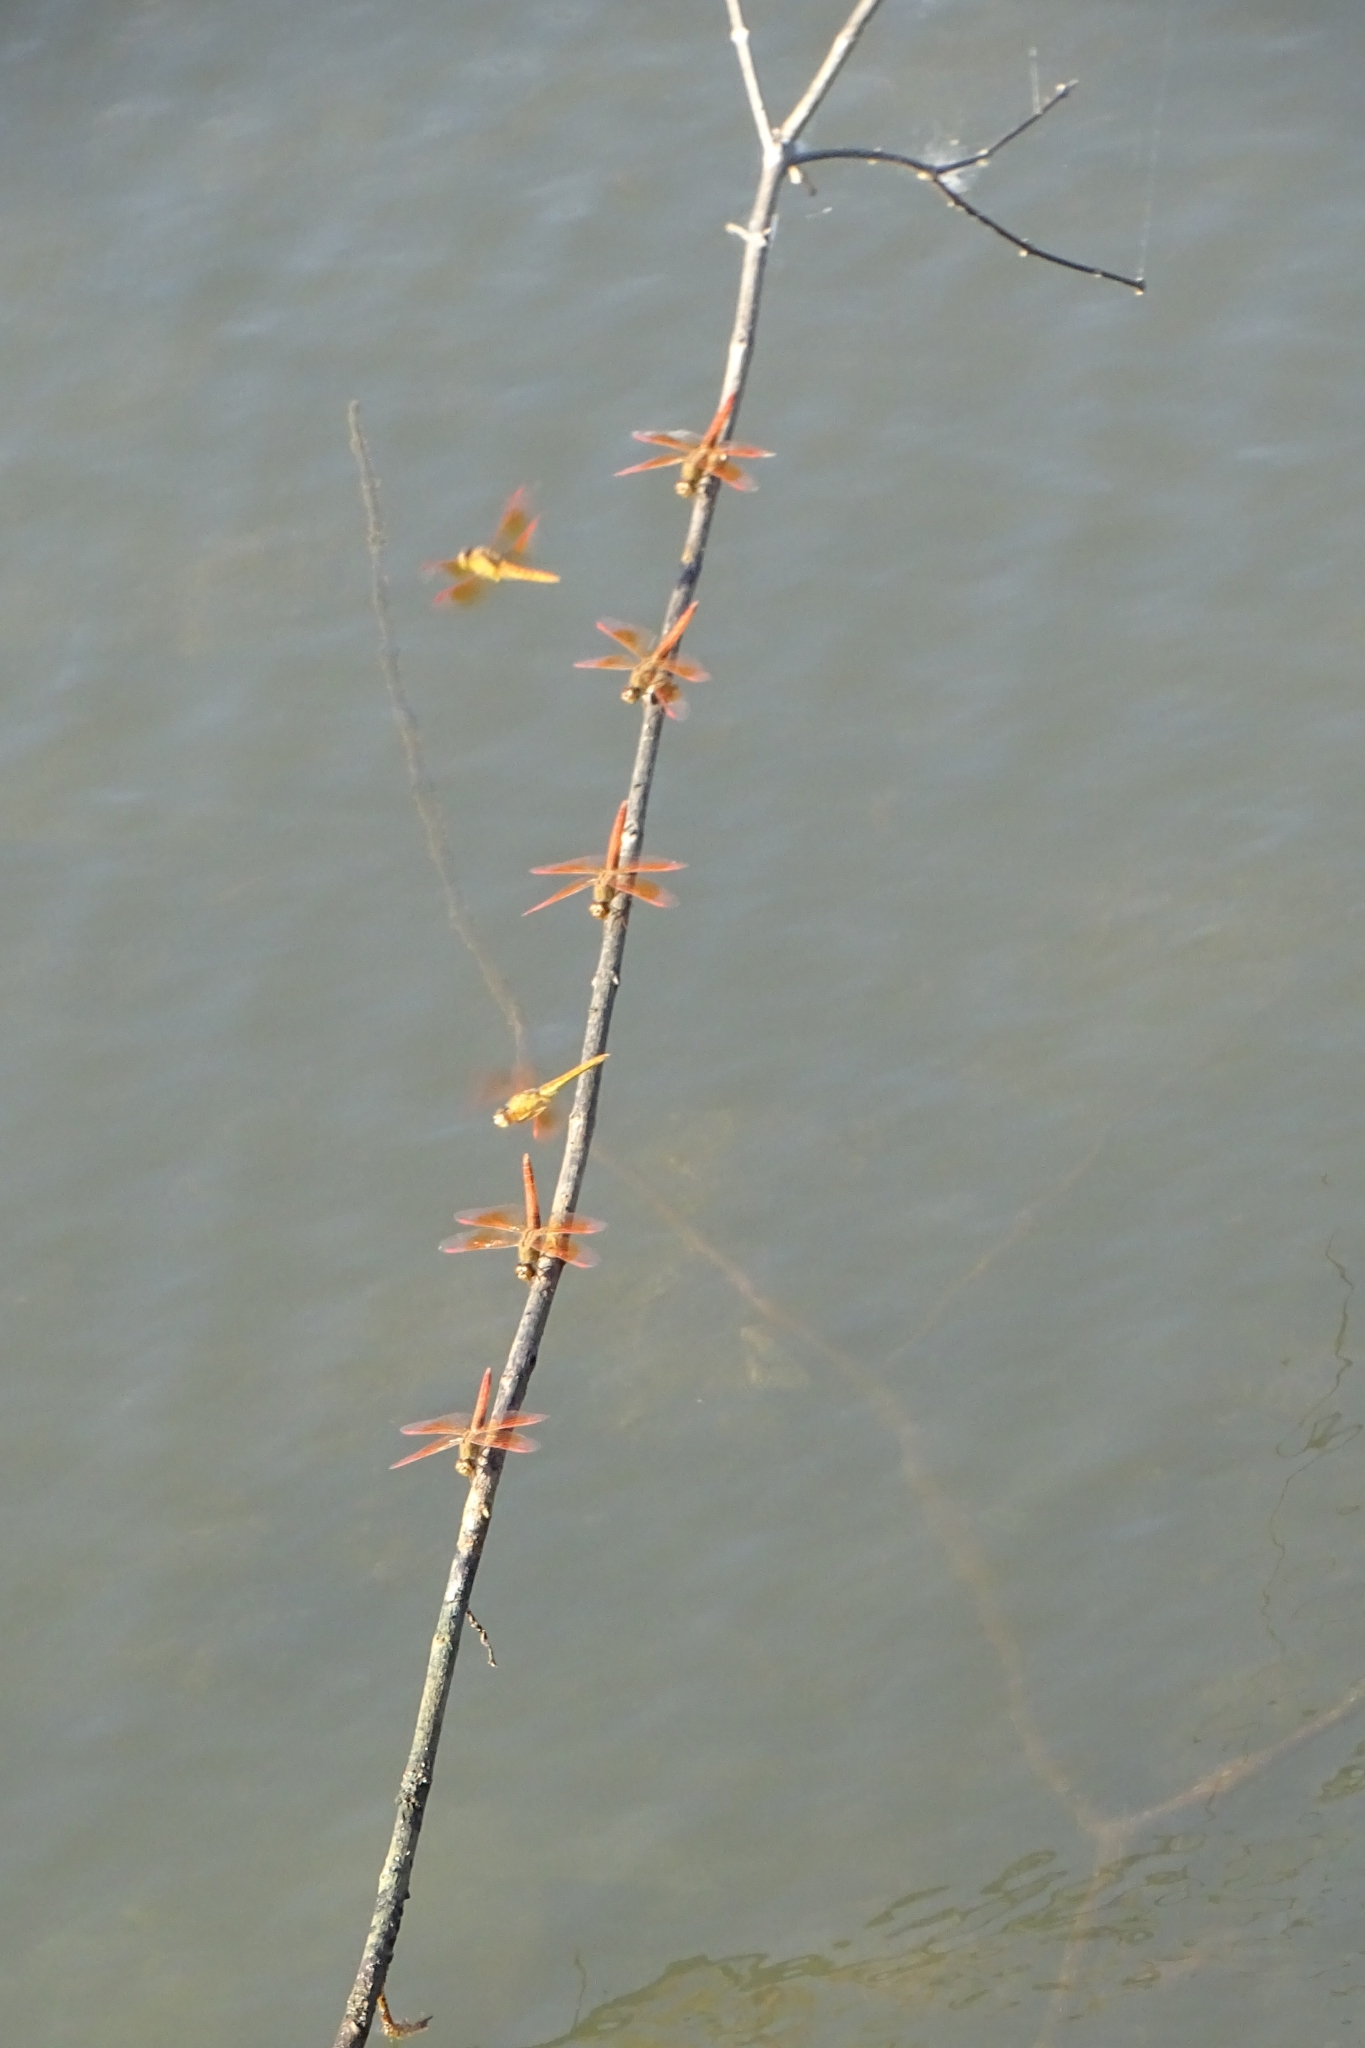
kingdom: Animalia
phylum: Arthropoda
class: Insecta
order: Odonata
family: Libellulidae
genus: Brachythemis
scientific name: Brachythemis contaminata
